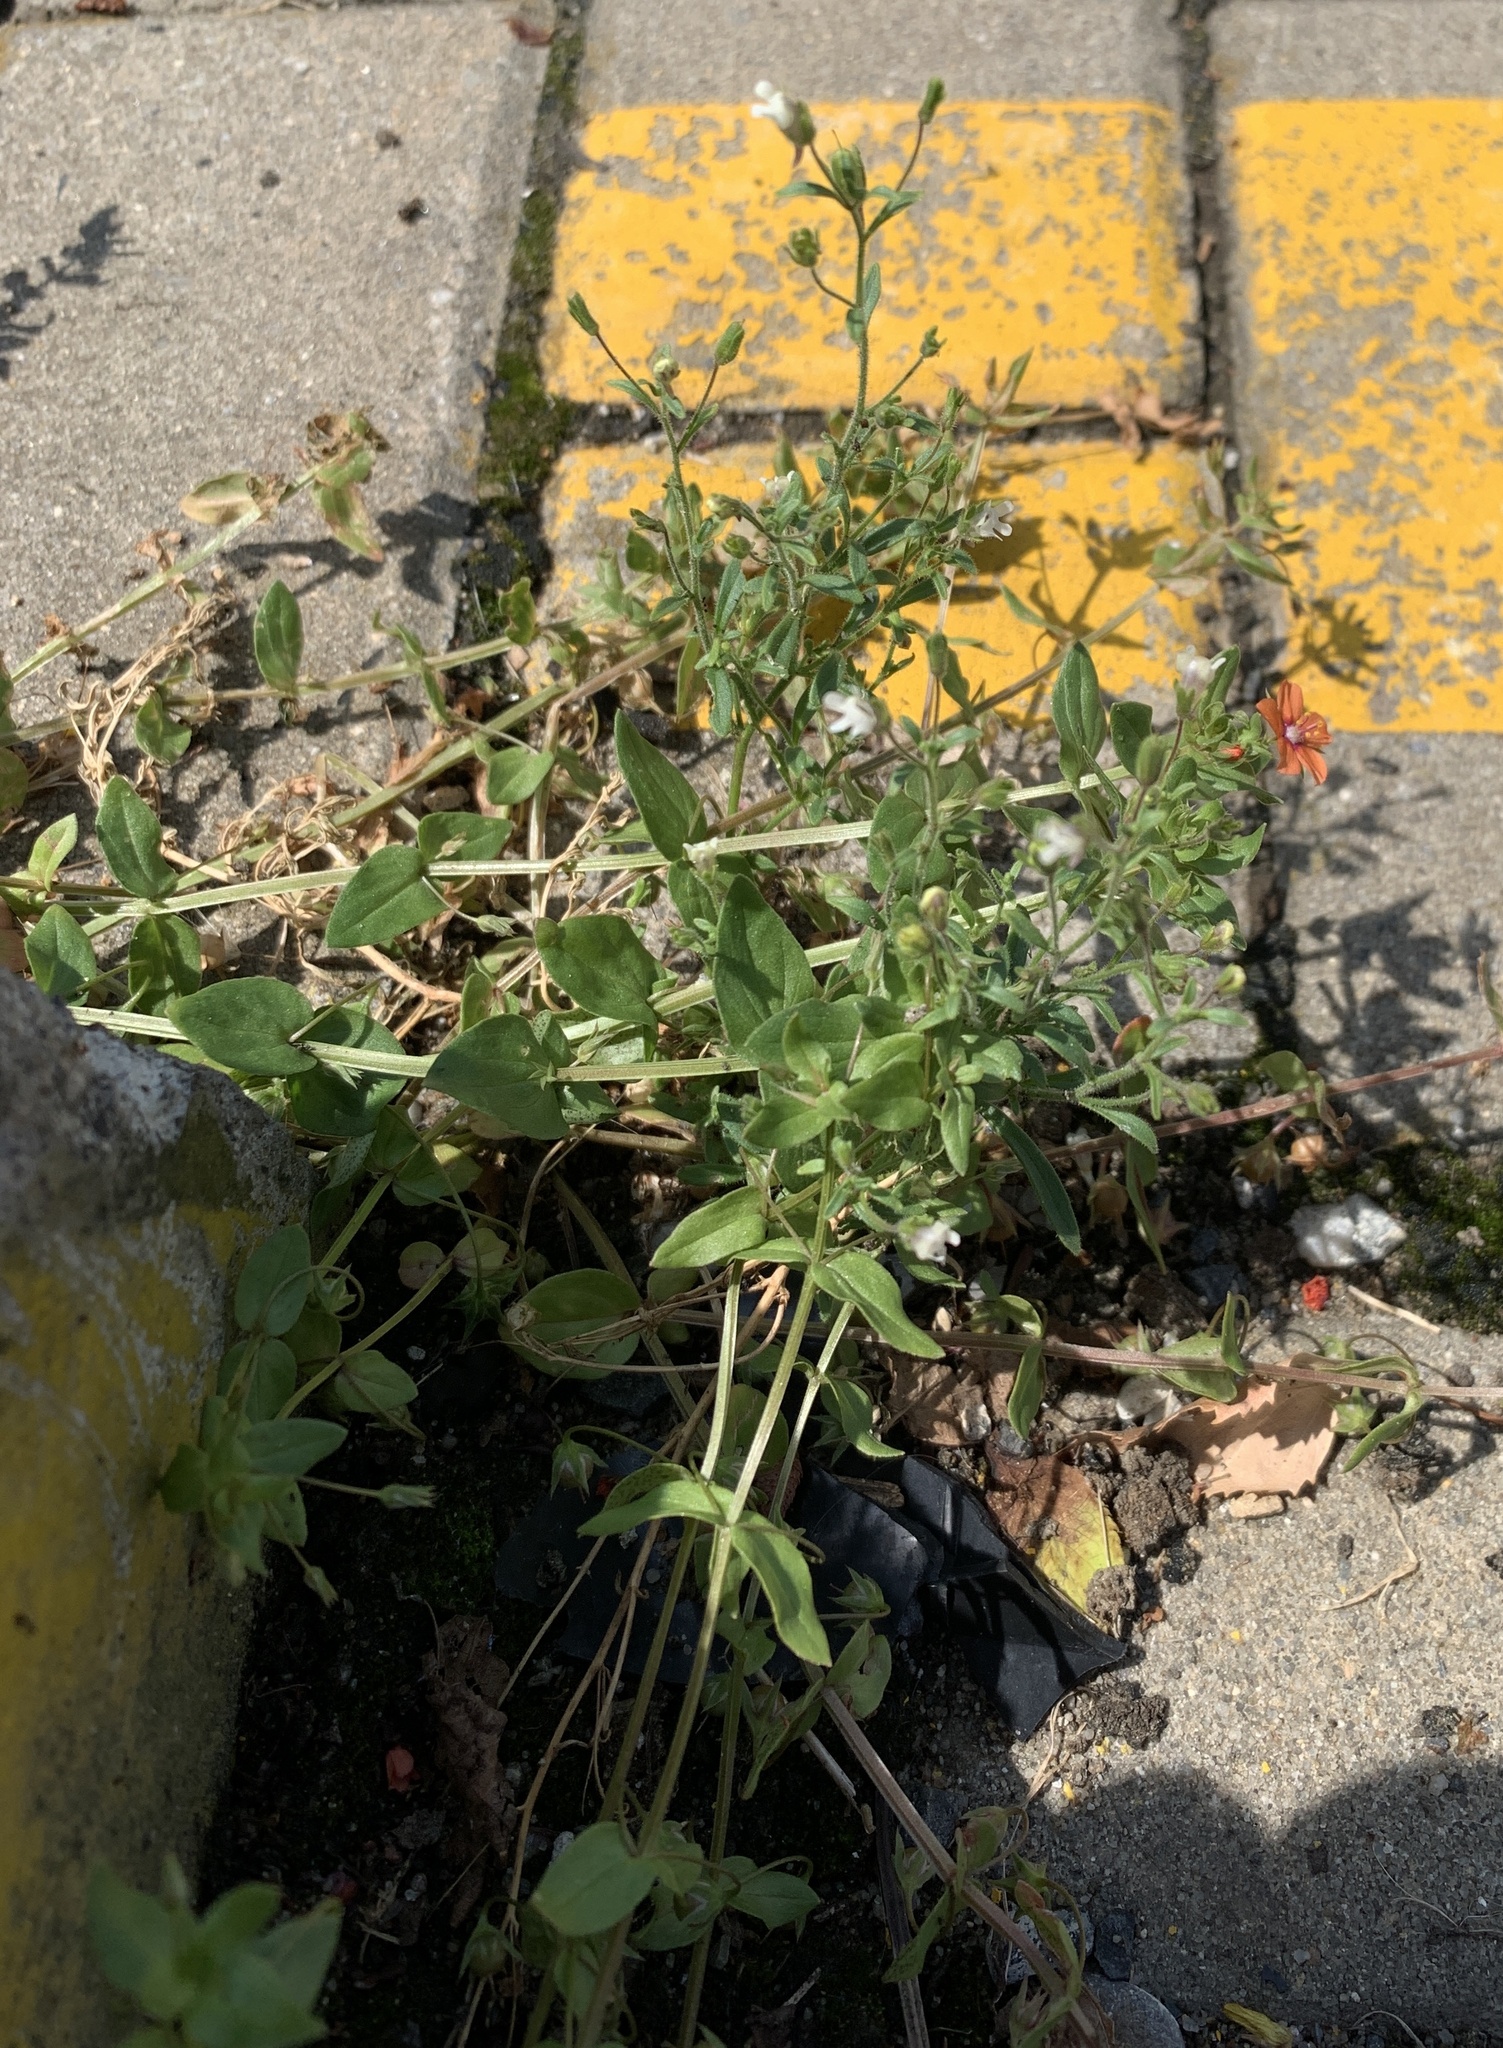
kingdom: Plantae
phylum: Tracheophyta
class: Magnoliopsida
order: Lamiales
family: Plantaginaceae
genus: Chaenorhinum
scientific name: Chaenorhinum minus
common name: Dwarf snapdragon
